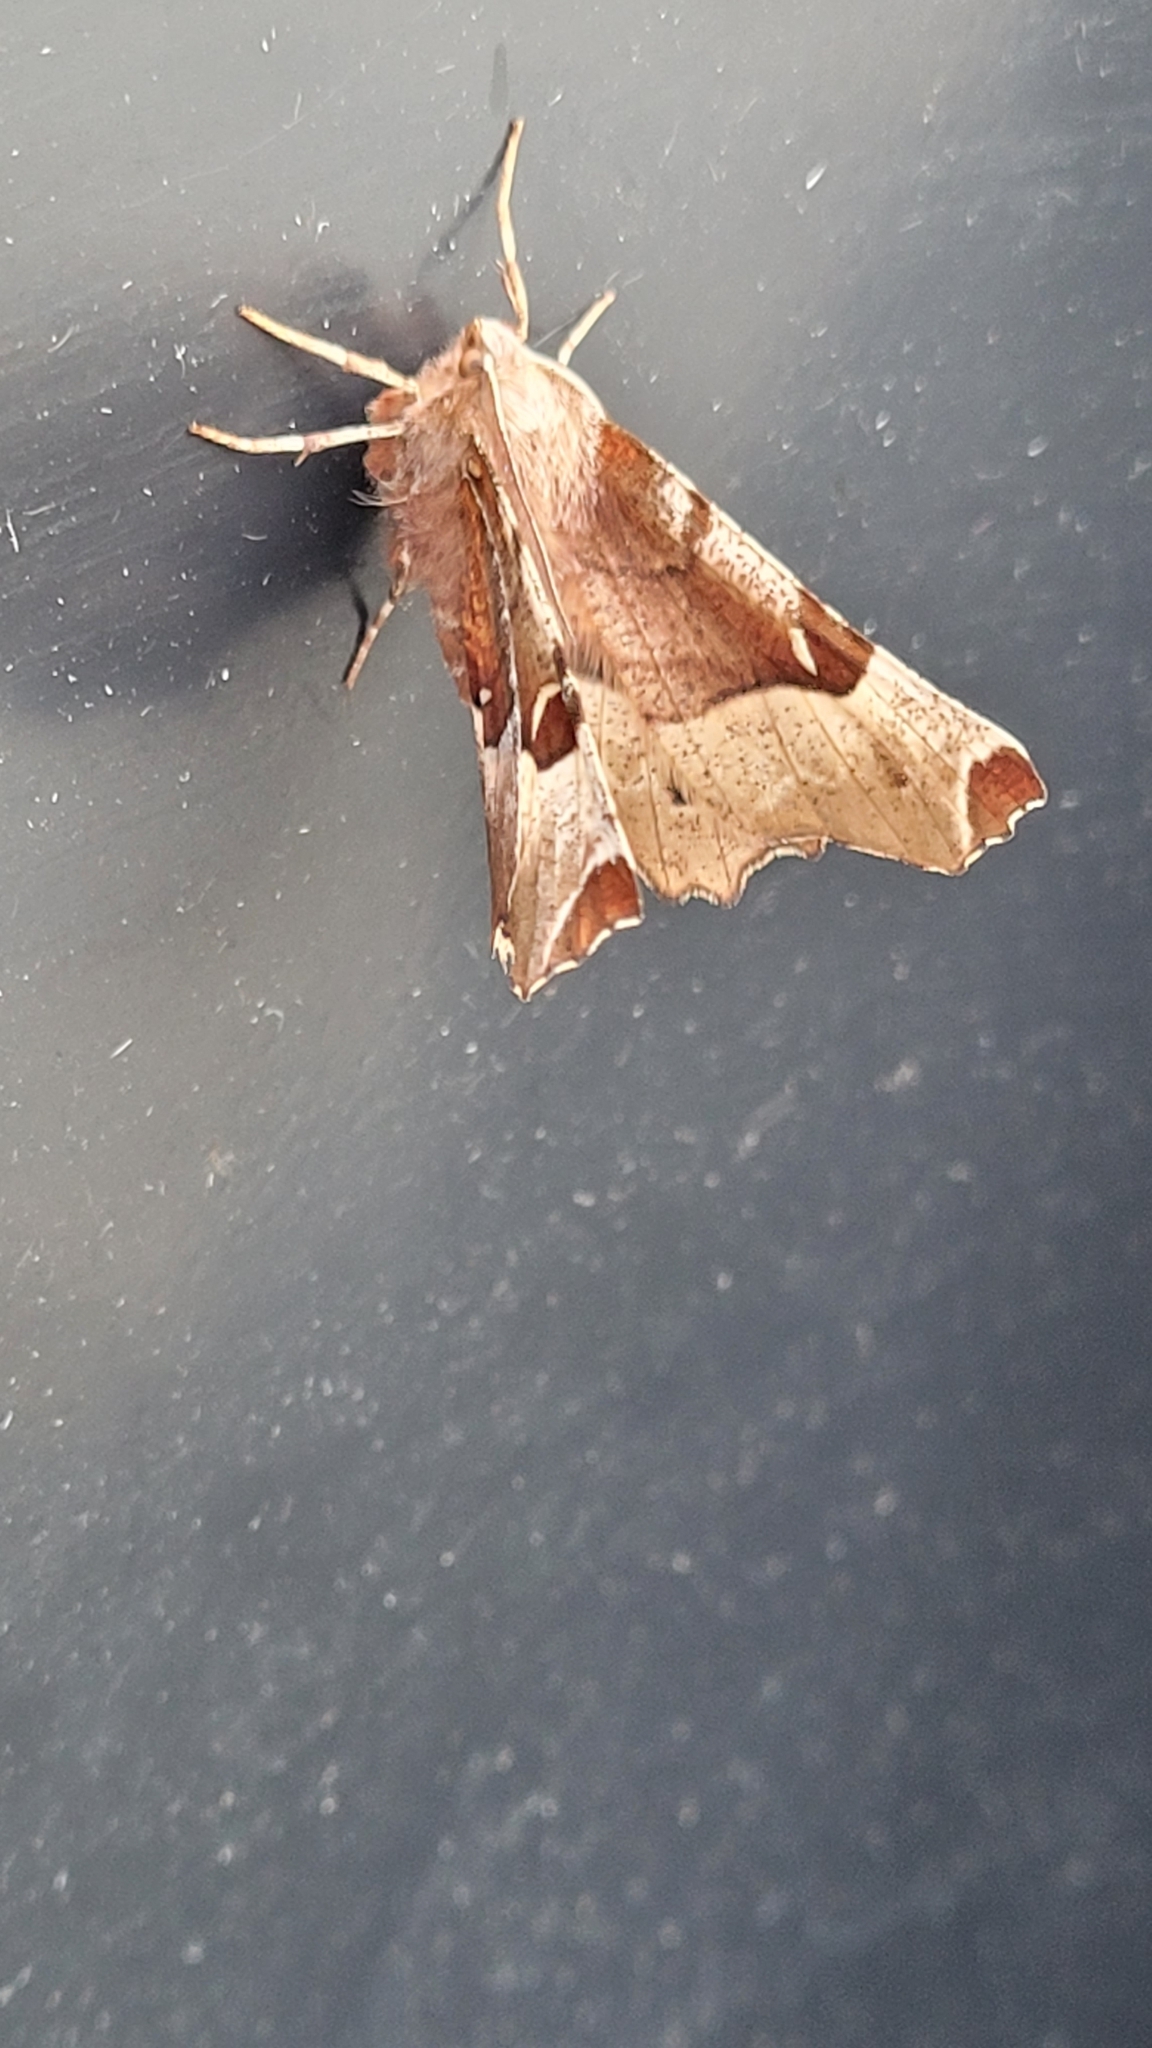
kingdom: Animalia
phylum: Arthropoda
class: Insecta
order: Lepidoptera
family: Geometridae
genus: Selenia
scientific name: Selenia tetralunaria
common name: Purple thorn
